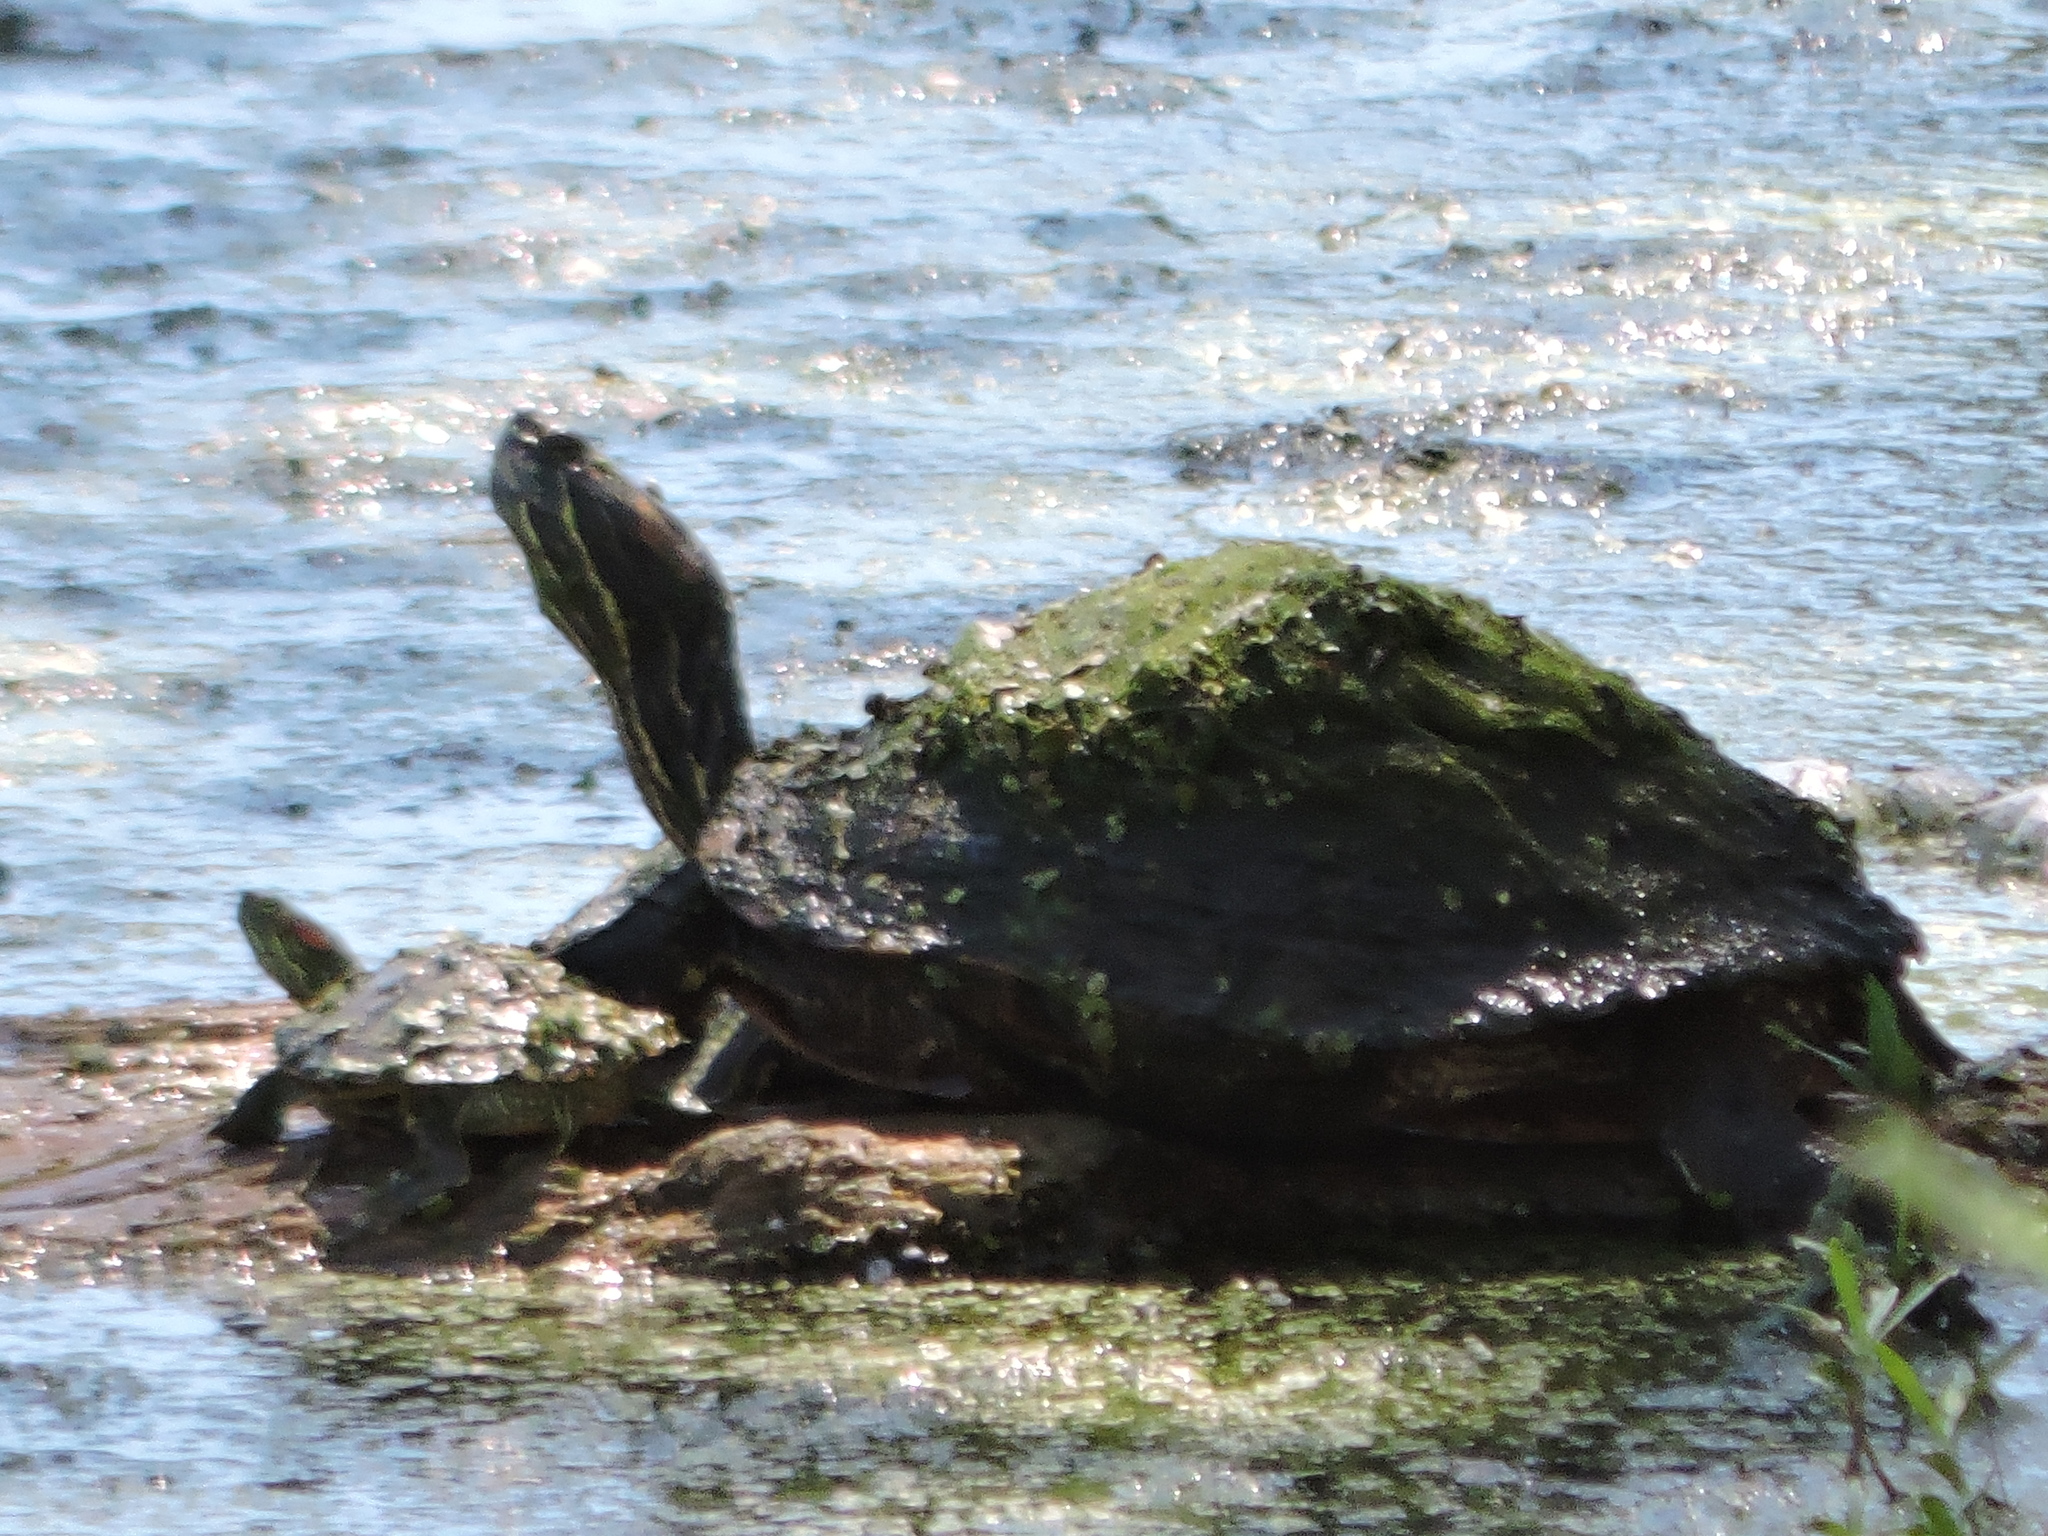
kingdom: Animalia
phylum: Chordata
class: Testudines
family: Emydidae
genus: Trachemys
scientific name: Trachemys scripta
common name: Slider
